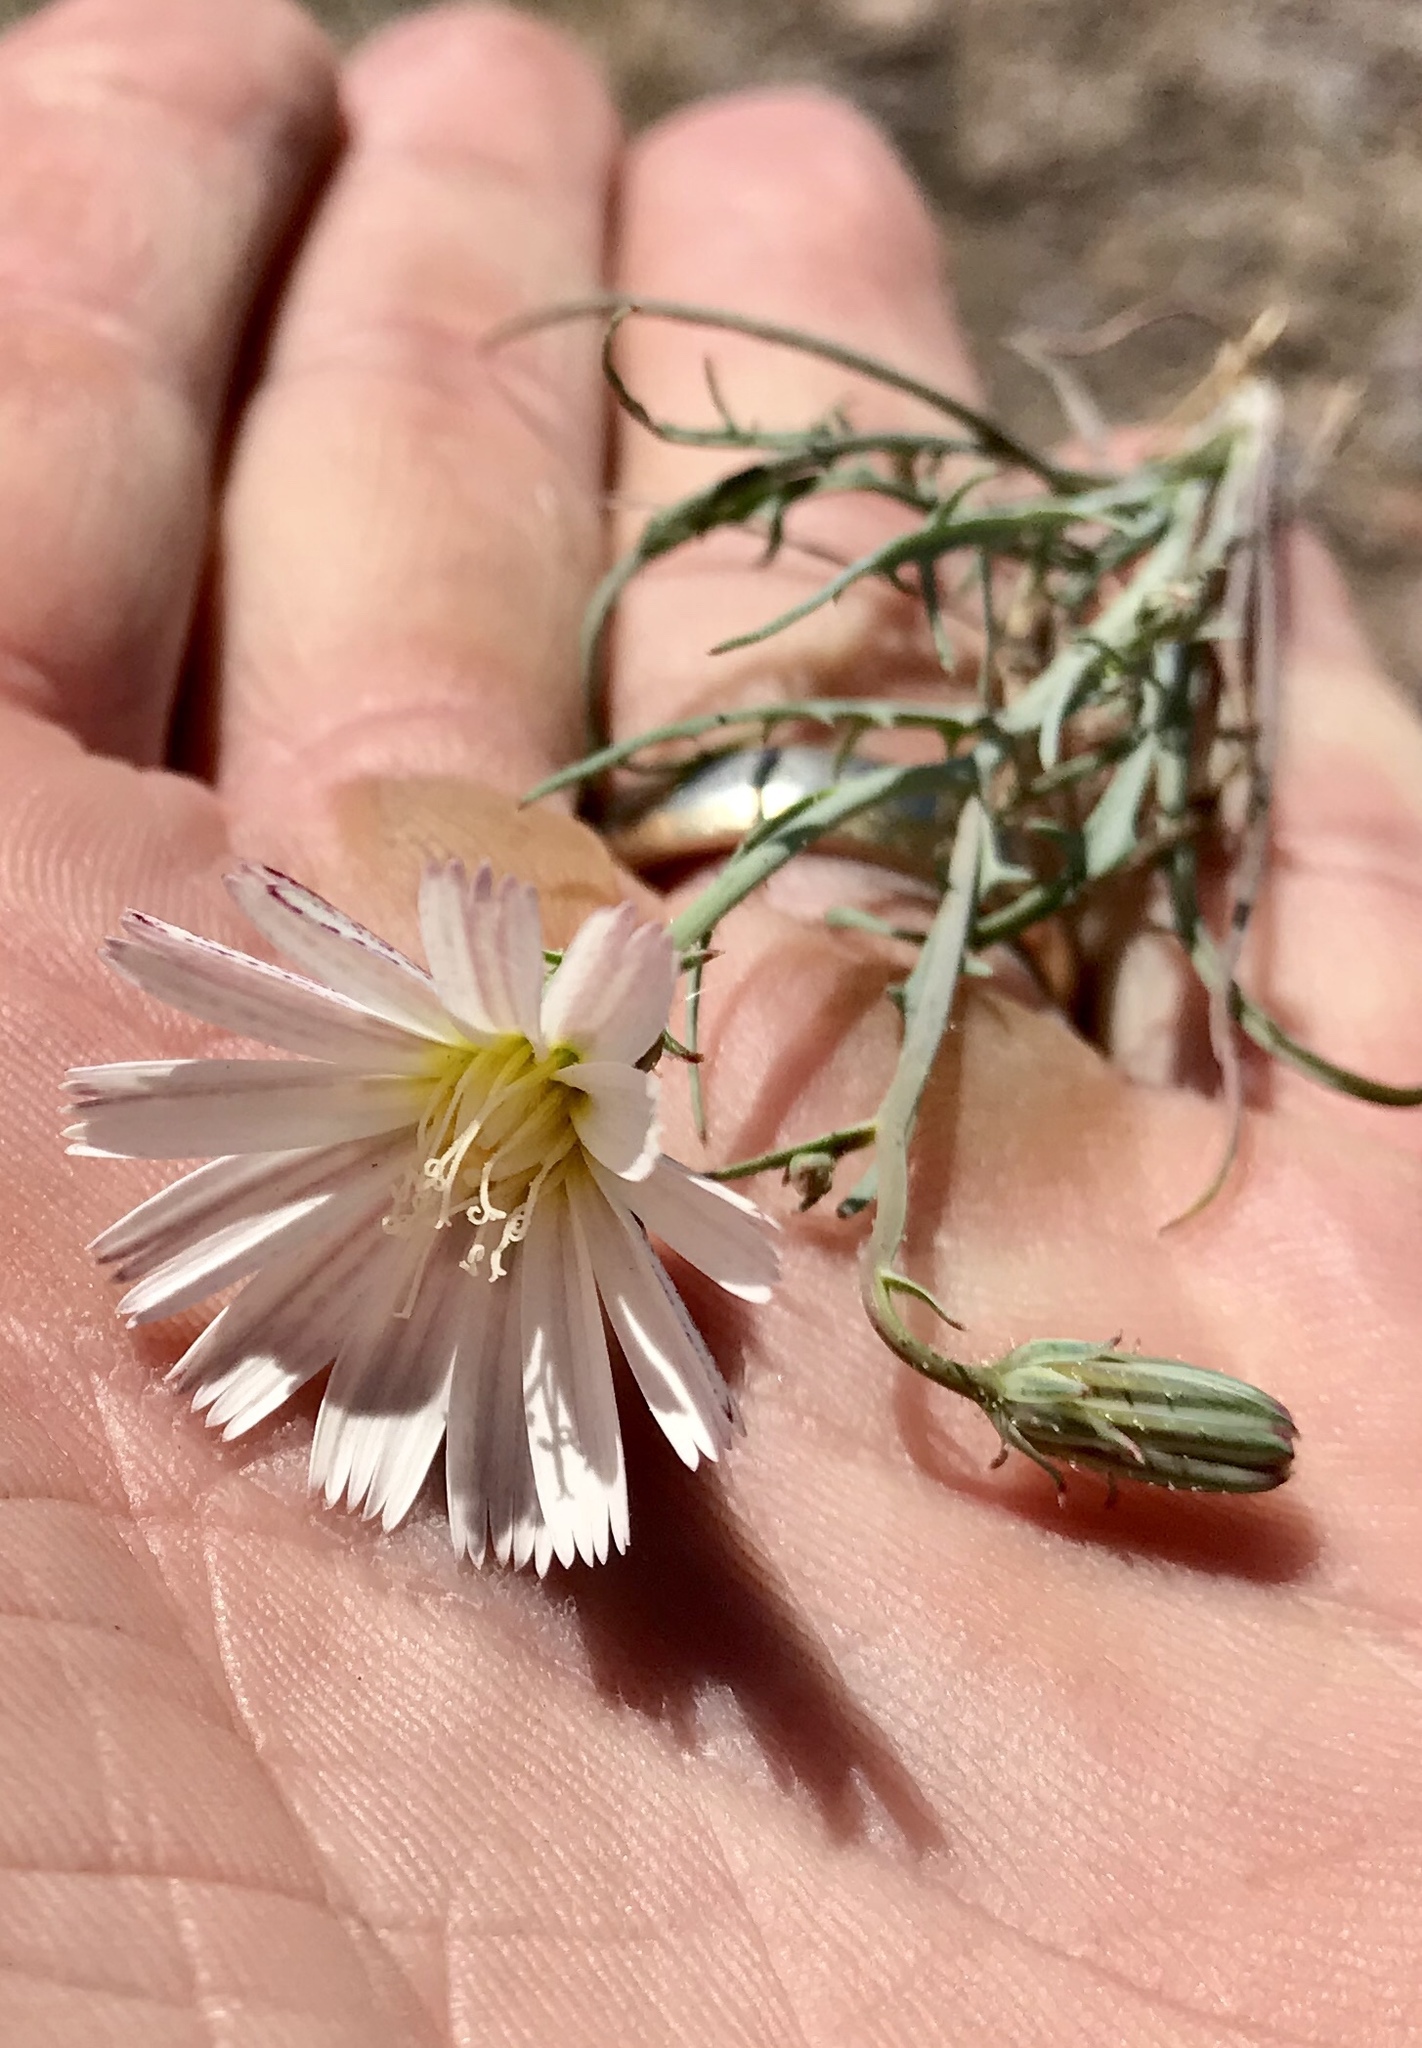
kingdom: Plantae
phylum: Tracheophyta
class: Magnoliopsida
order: Asterales
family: Asteraceae
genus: Calycoseris
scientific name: Calycoseris wrightii
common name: White tackstem
